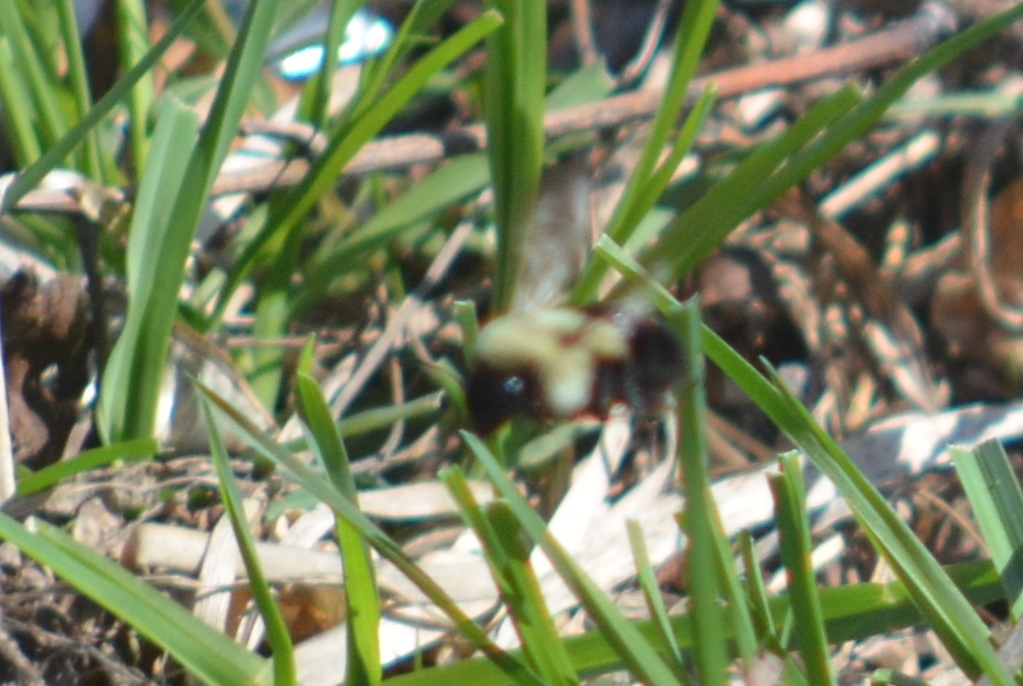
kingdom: Animalia
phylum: Arthropoda
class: Insecta
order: Hymenoptera
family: Apidae
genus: Bombus
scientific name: Bombus impatiens
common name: Common eastern bumble bee
